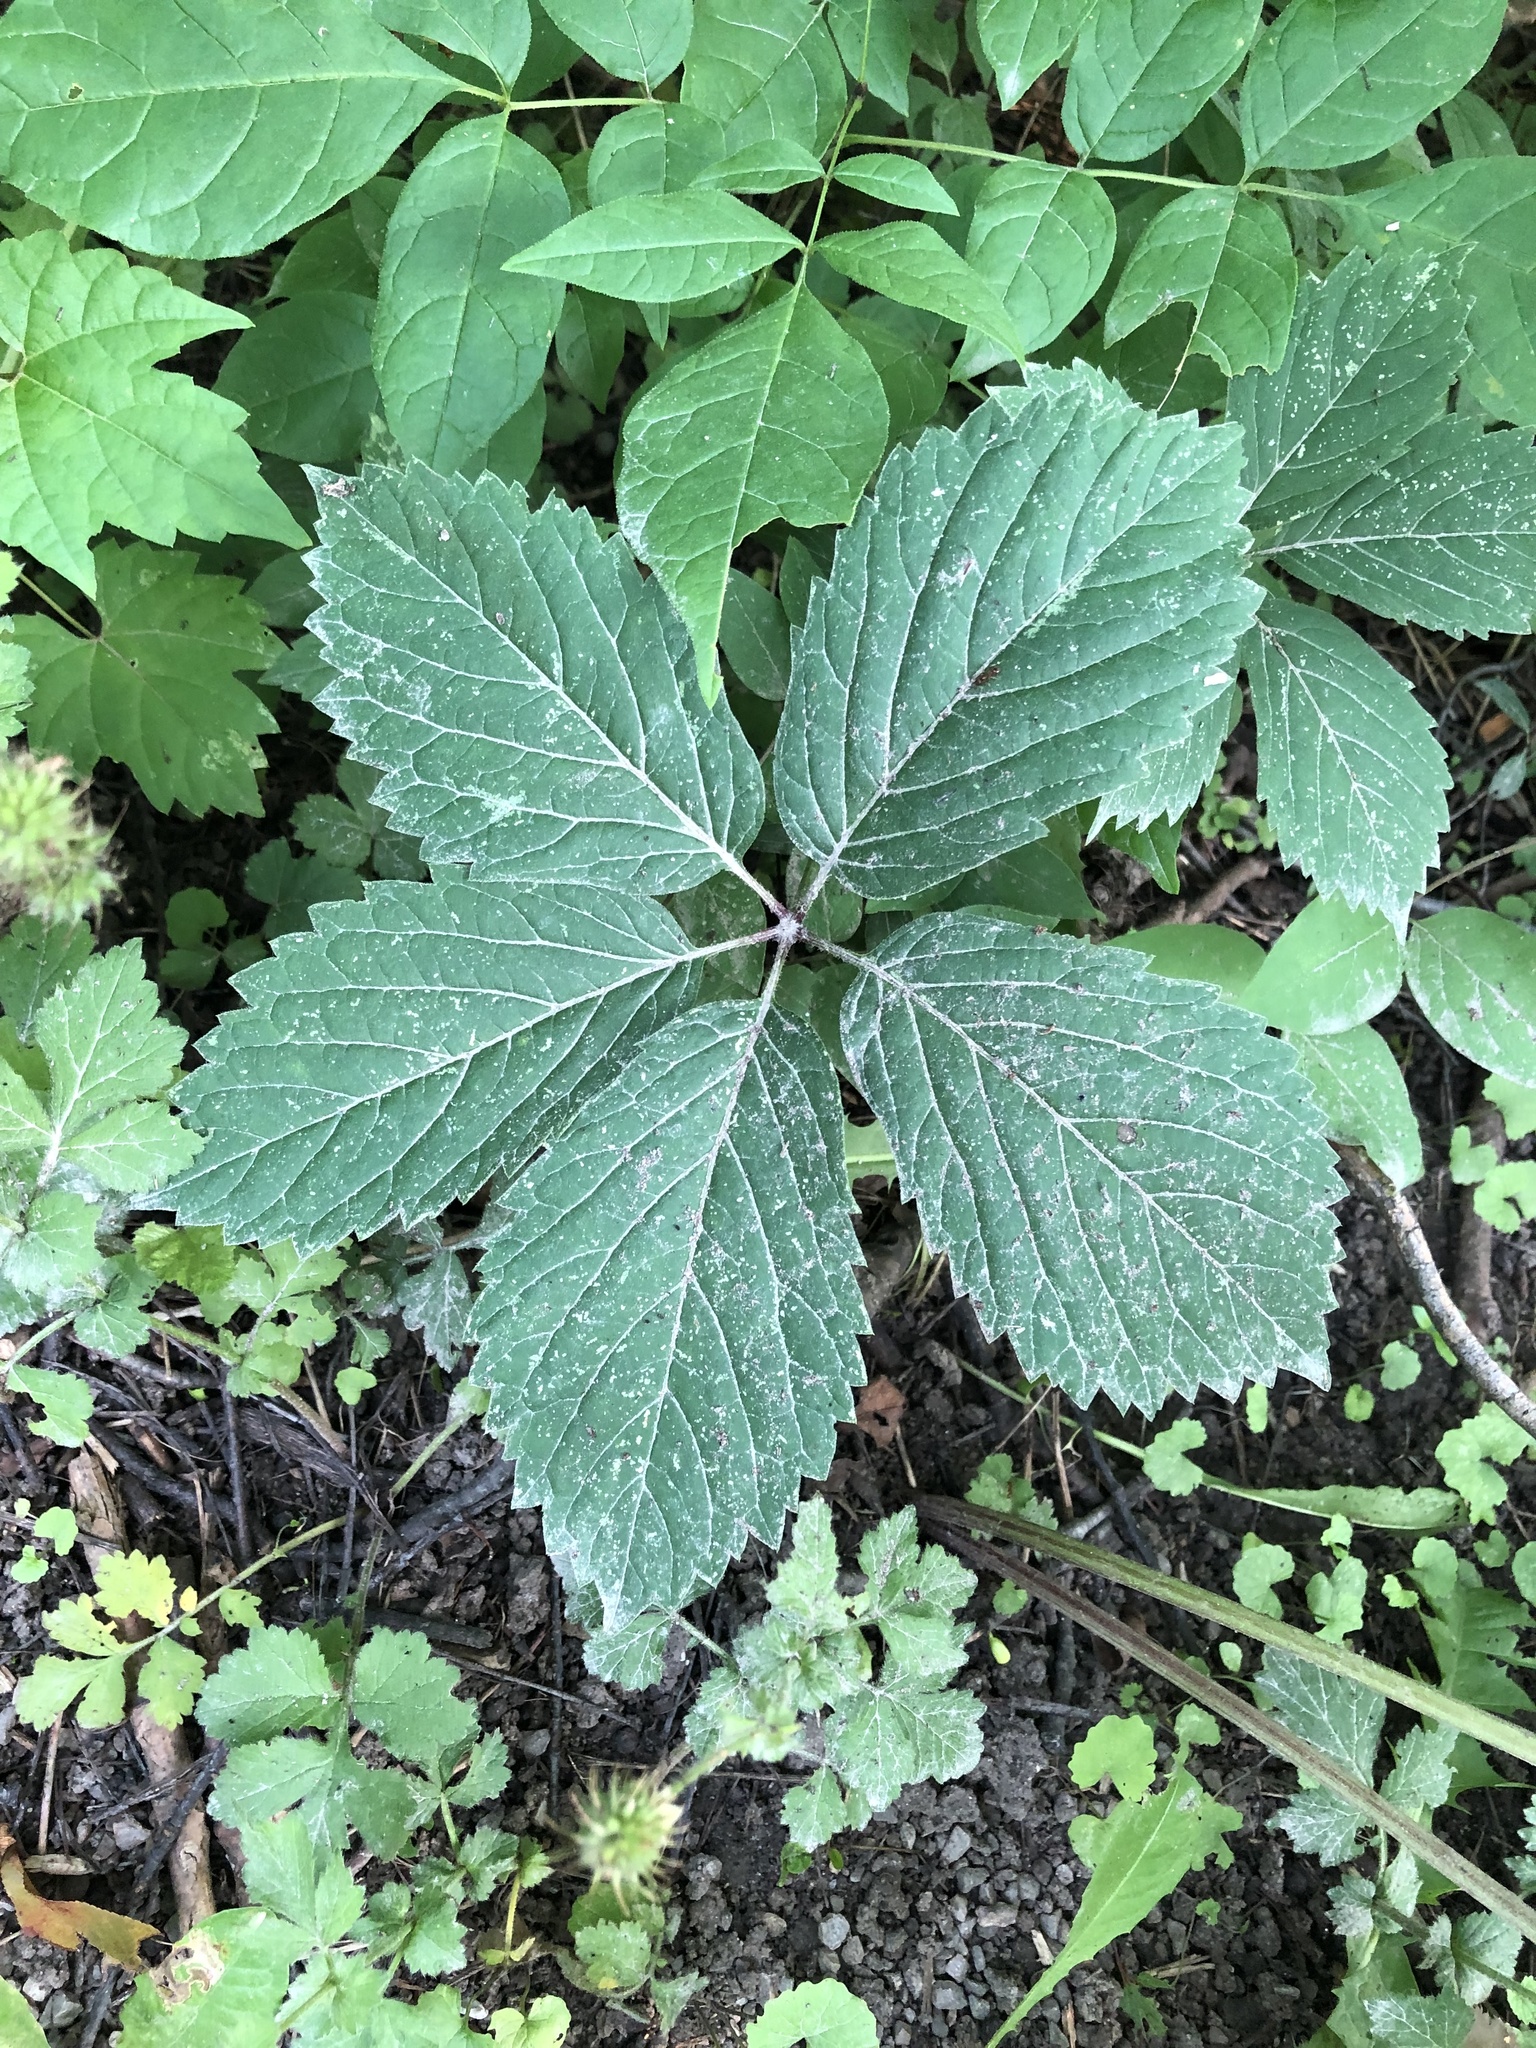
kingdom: Plantae
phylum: Tracheophyta
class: Magnoliopsida
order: Vitales
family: Vitaceae
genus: Parthenocissus
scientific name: Parthenocissus inserta
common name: False virginia-creeper
